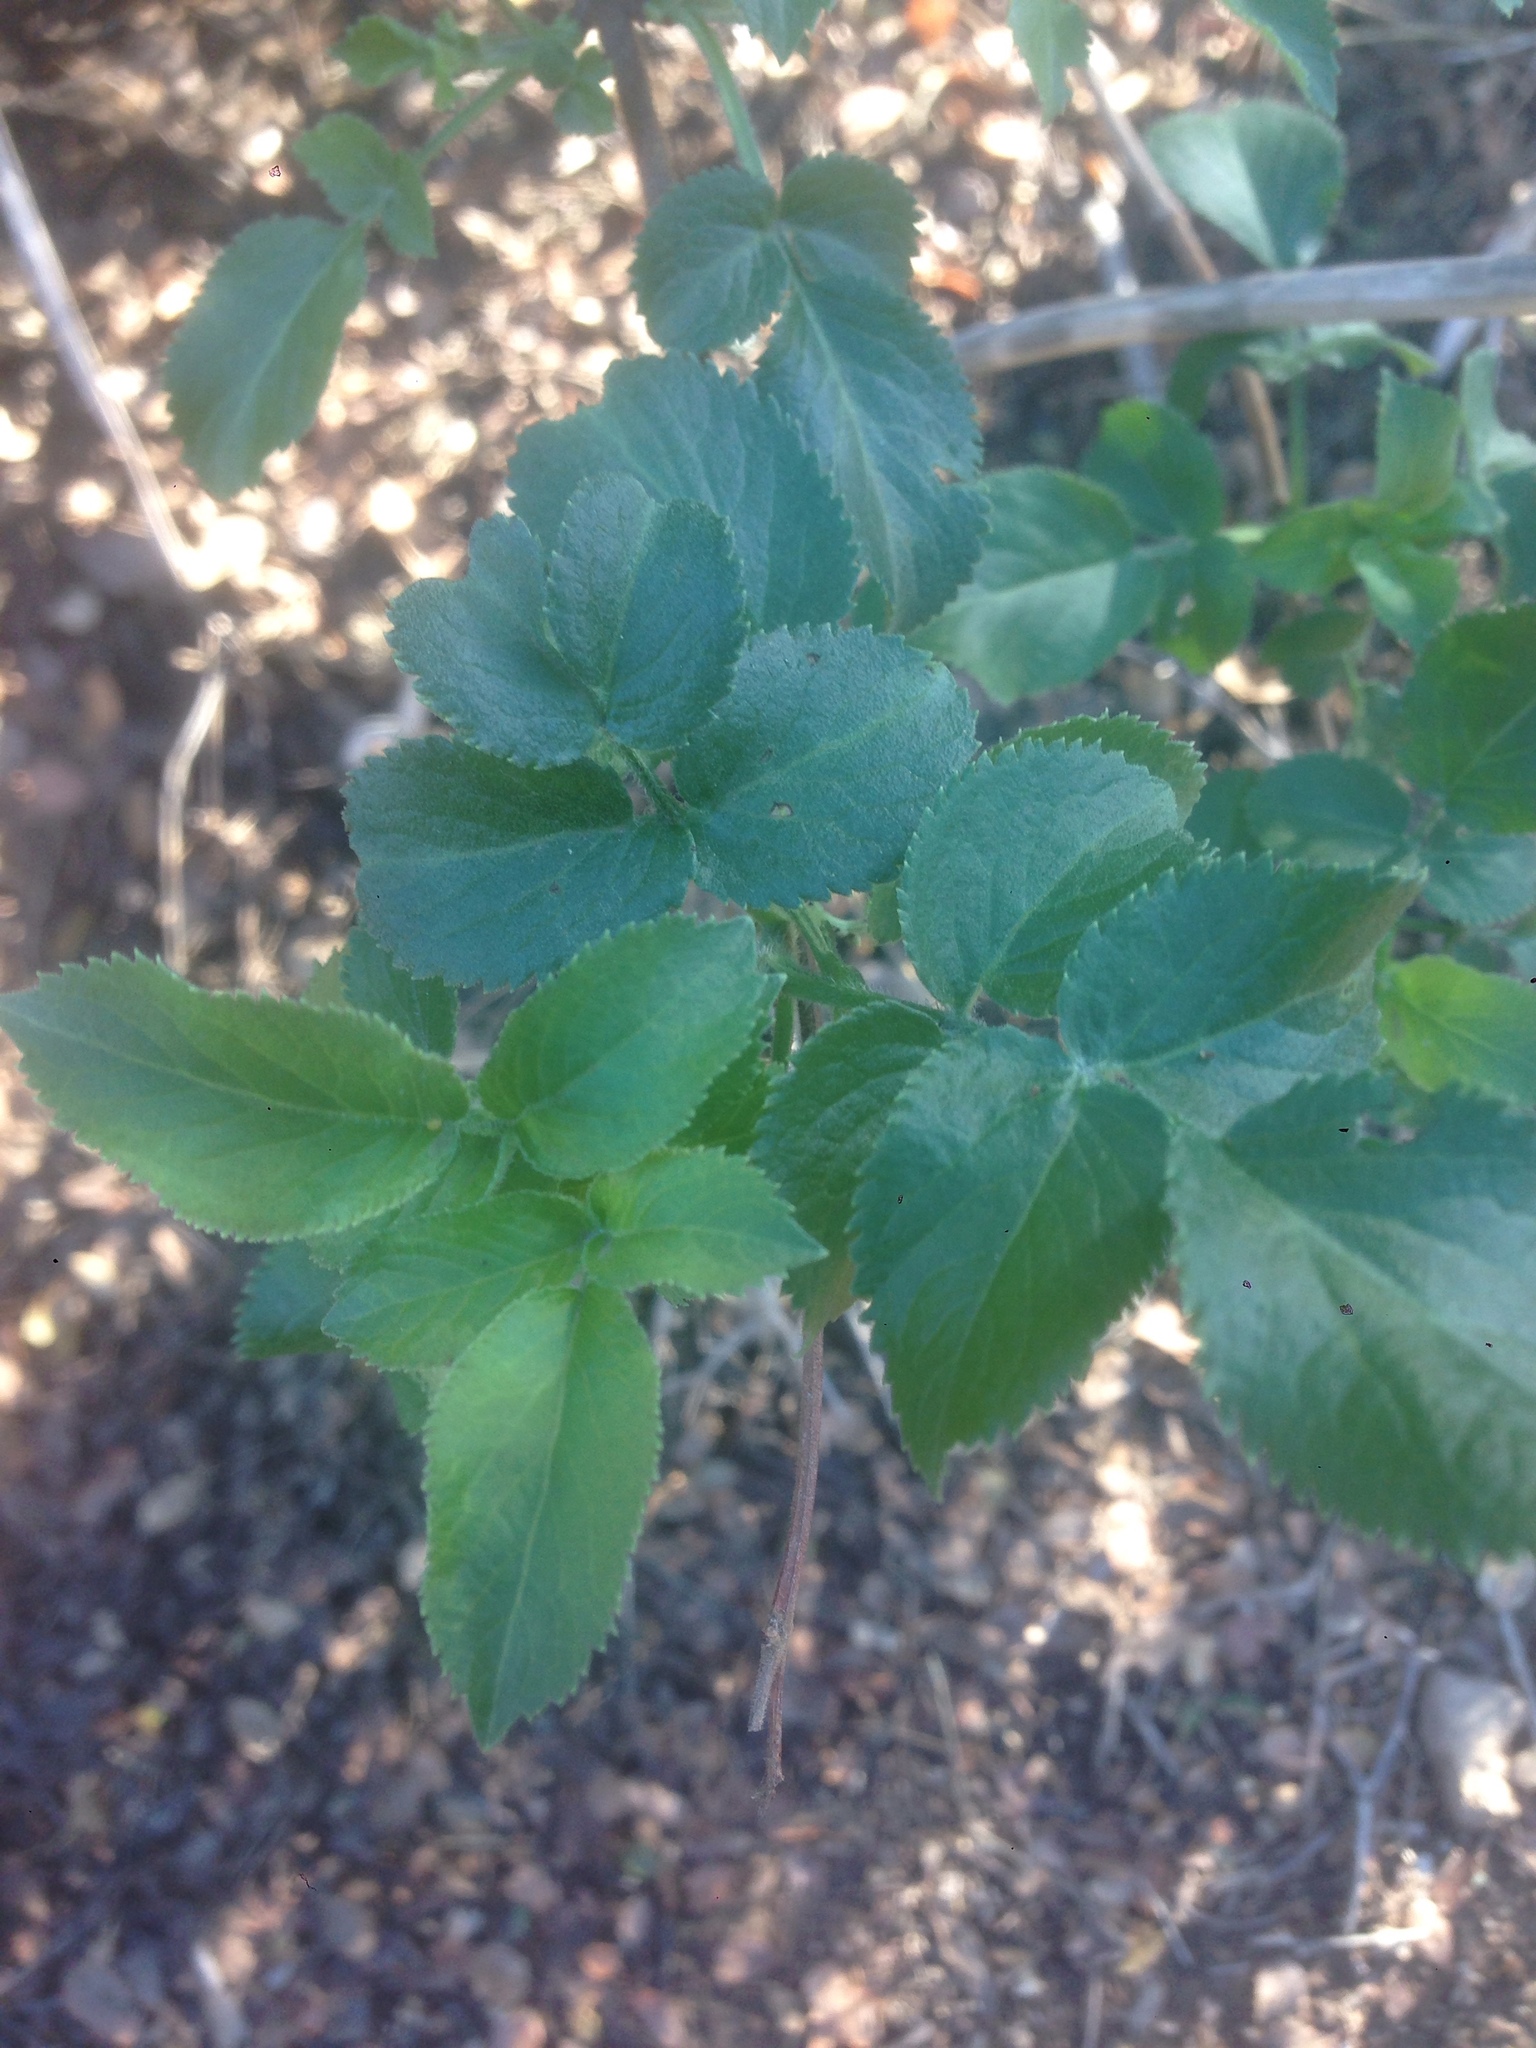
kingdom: Plantae
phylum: Tracheophyta
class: Magnoliopsida
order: Dipsacales
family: Viburnaceae
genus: Sambucus
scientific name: Sambucus cerulea
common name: Blue elder
